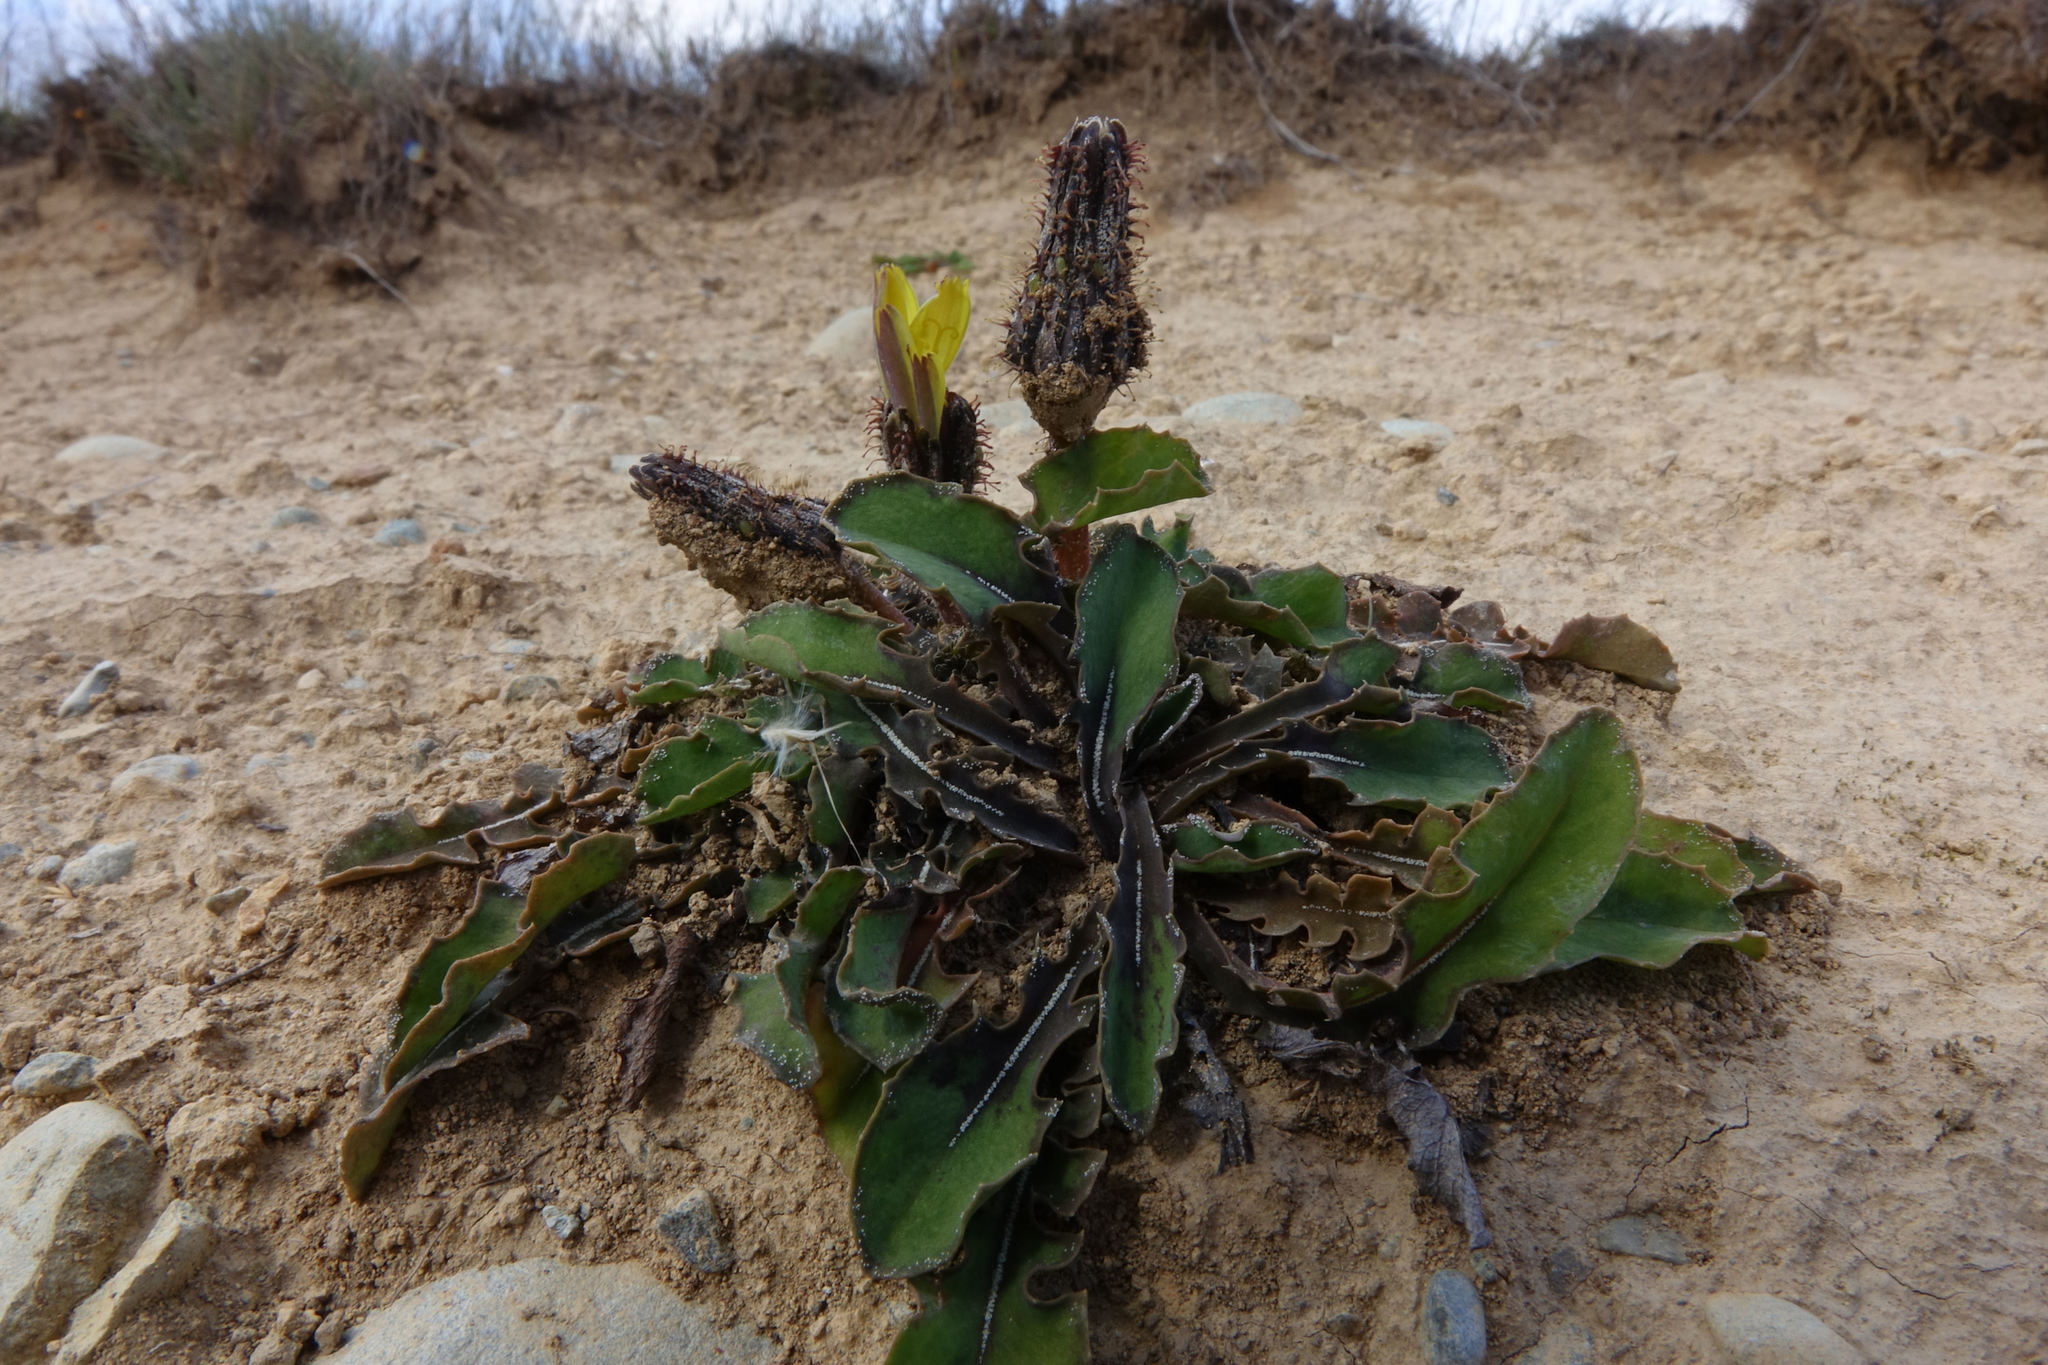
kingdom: Plantae
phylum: Tracheophyta
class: Magnoliopsida
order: Asterales
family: Asteraceae
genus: Sonchus
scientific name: Sonchus novae-zelandiae
